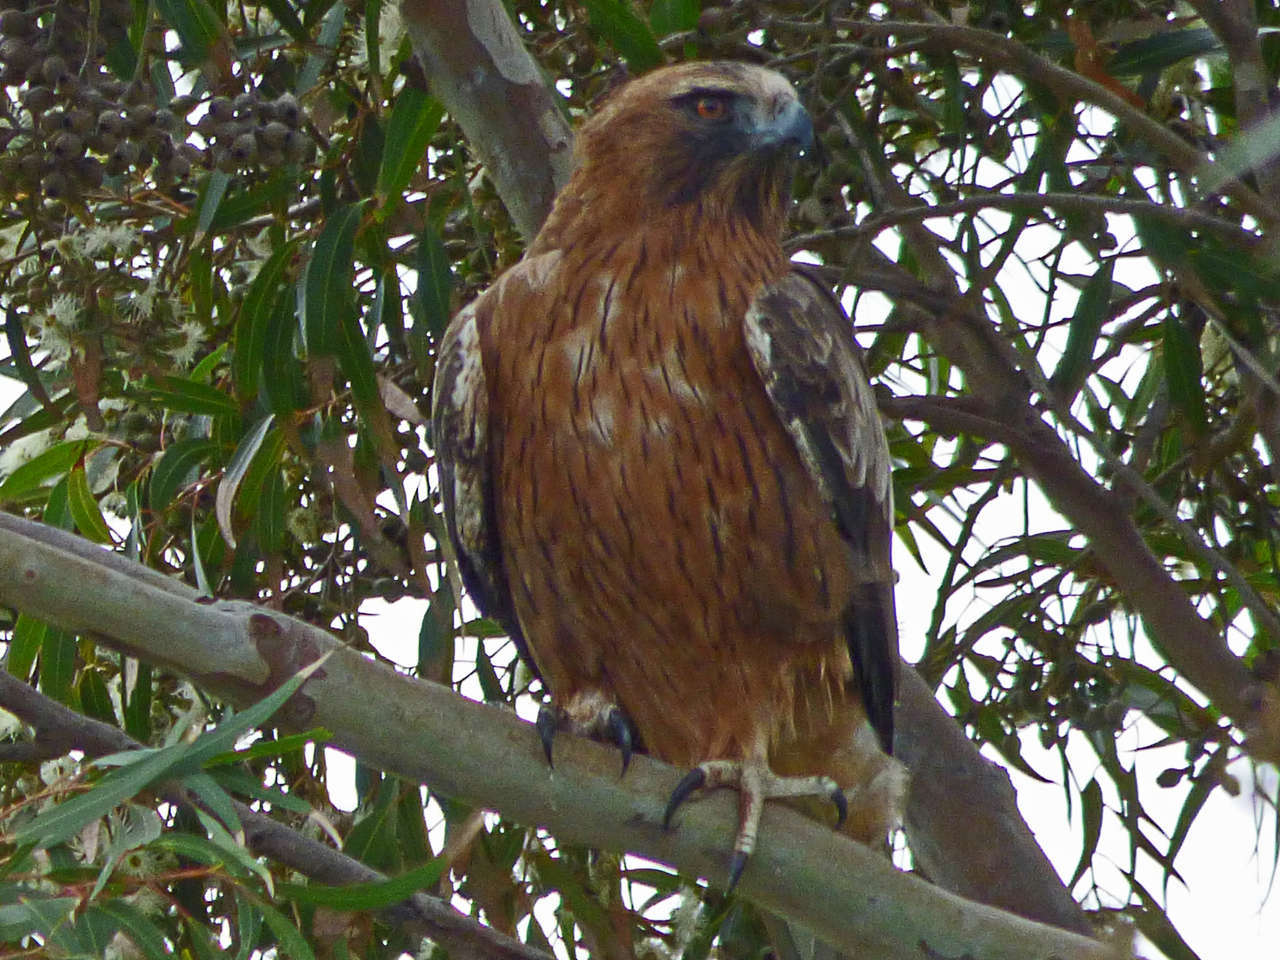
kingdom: Animalia
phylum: Chordata
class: Aves
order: Accipitriformes
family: Accipitridae
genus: Hieraaetus
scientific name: Hieraaetus morphnoides
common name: Little eagle
